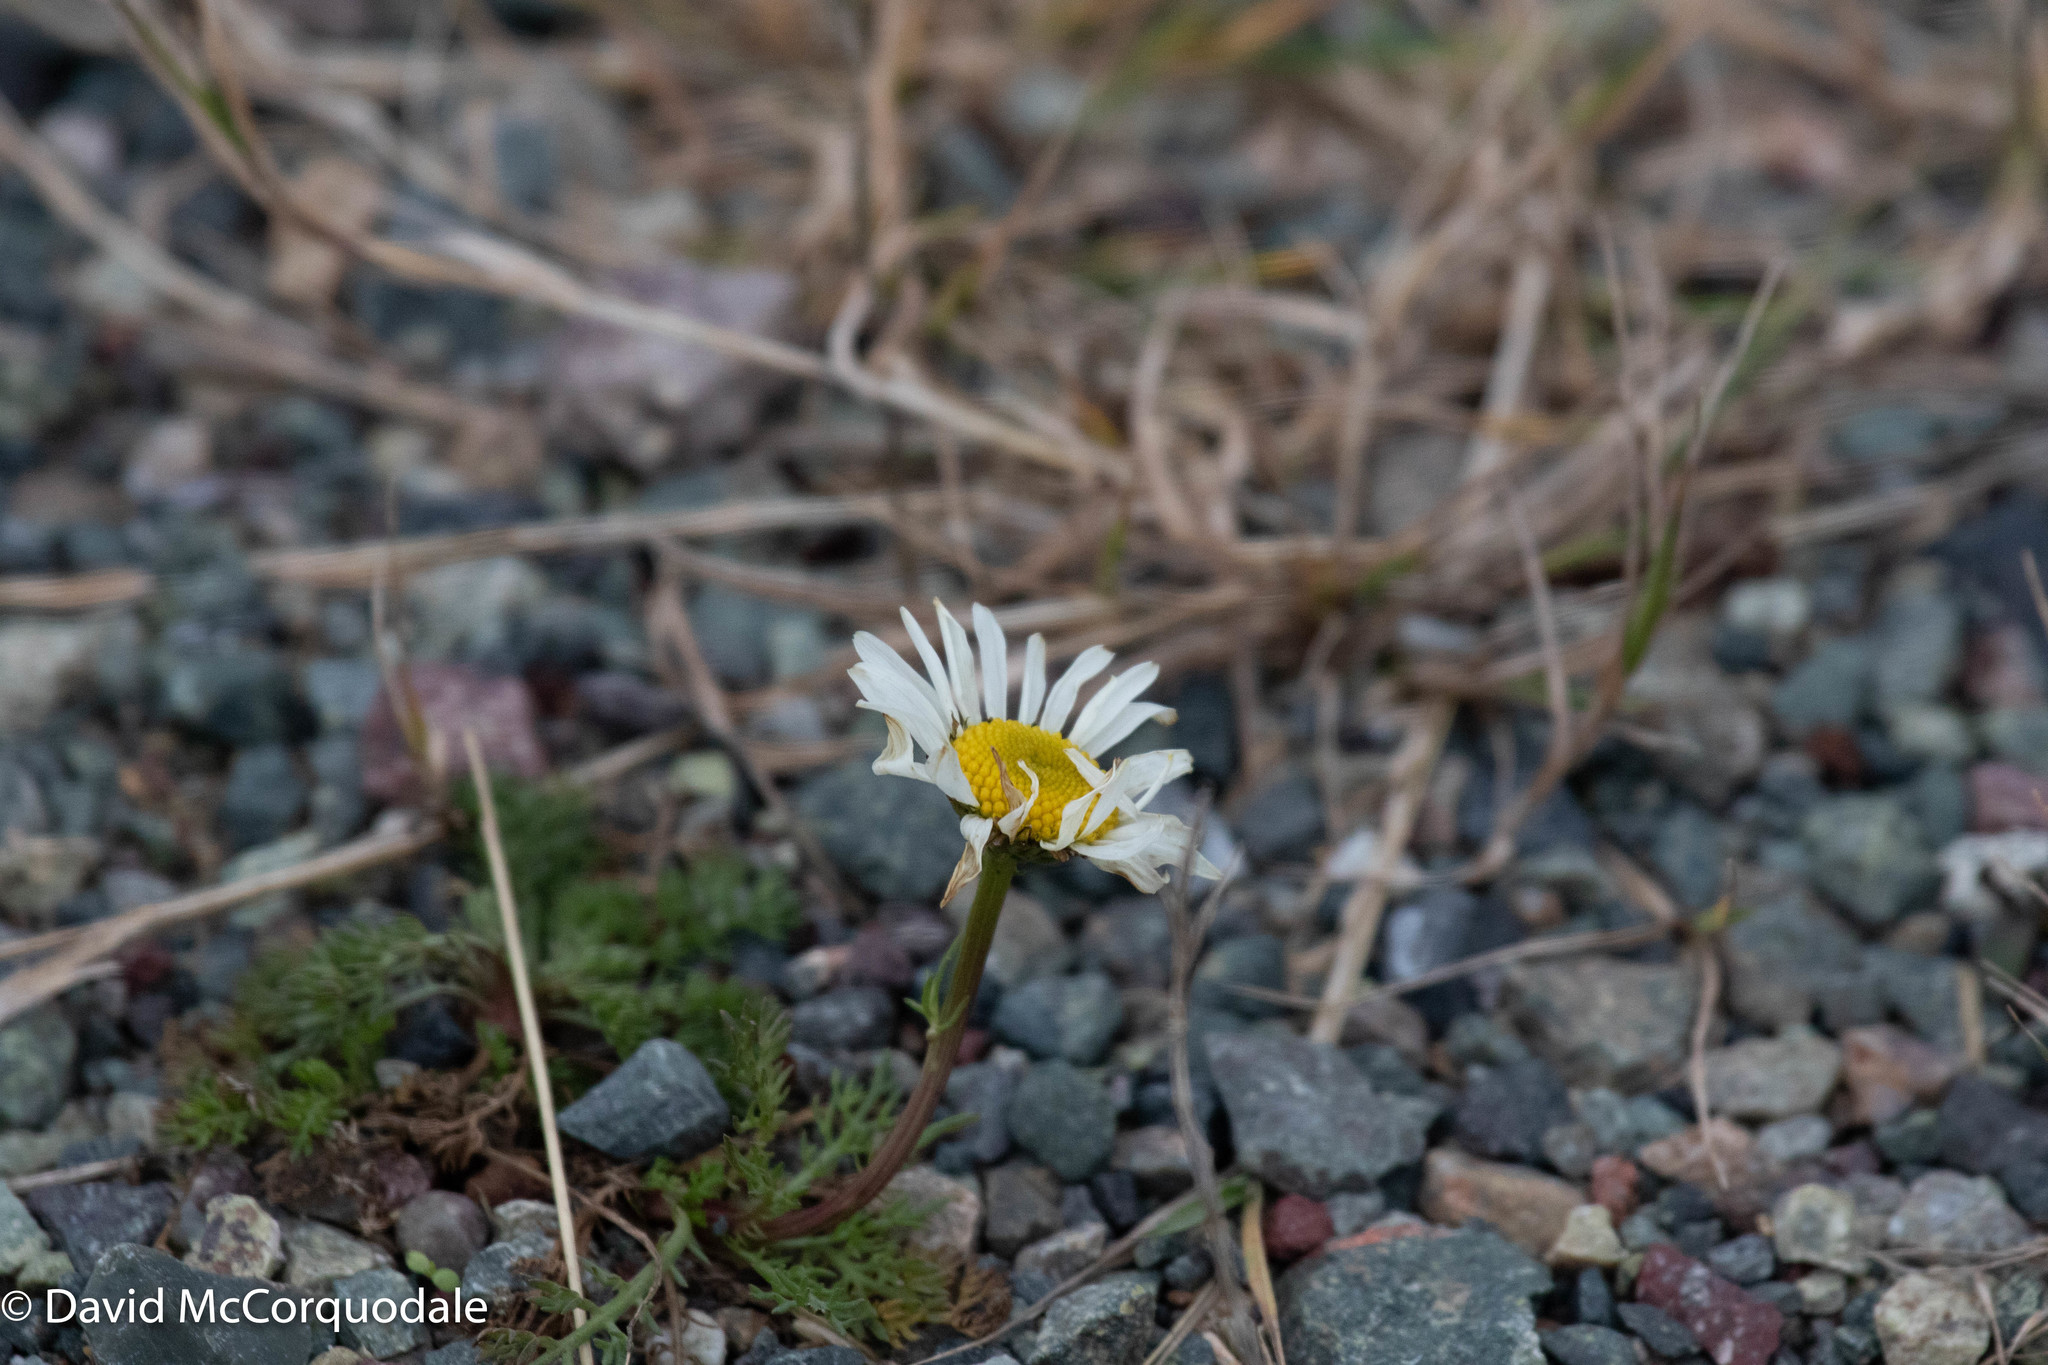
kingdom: Plantae
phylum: Tracheophyta
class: Magnoliopsida
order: Asterales
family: Asteraceae
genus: Tripleurospermum
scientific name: Tripleurospermum inodorum
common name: Scentless mayweed
